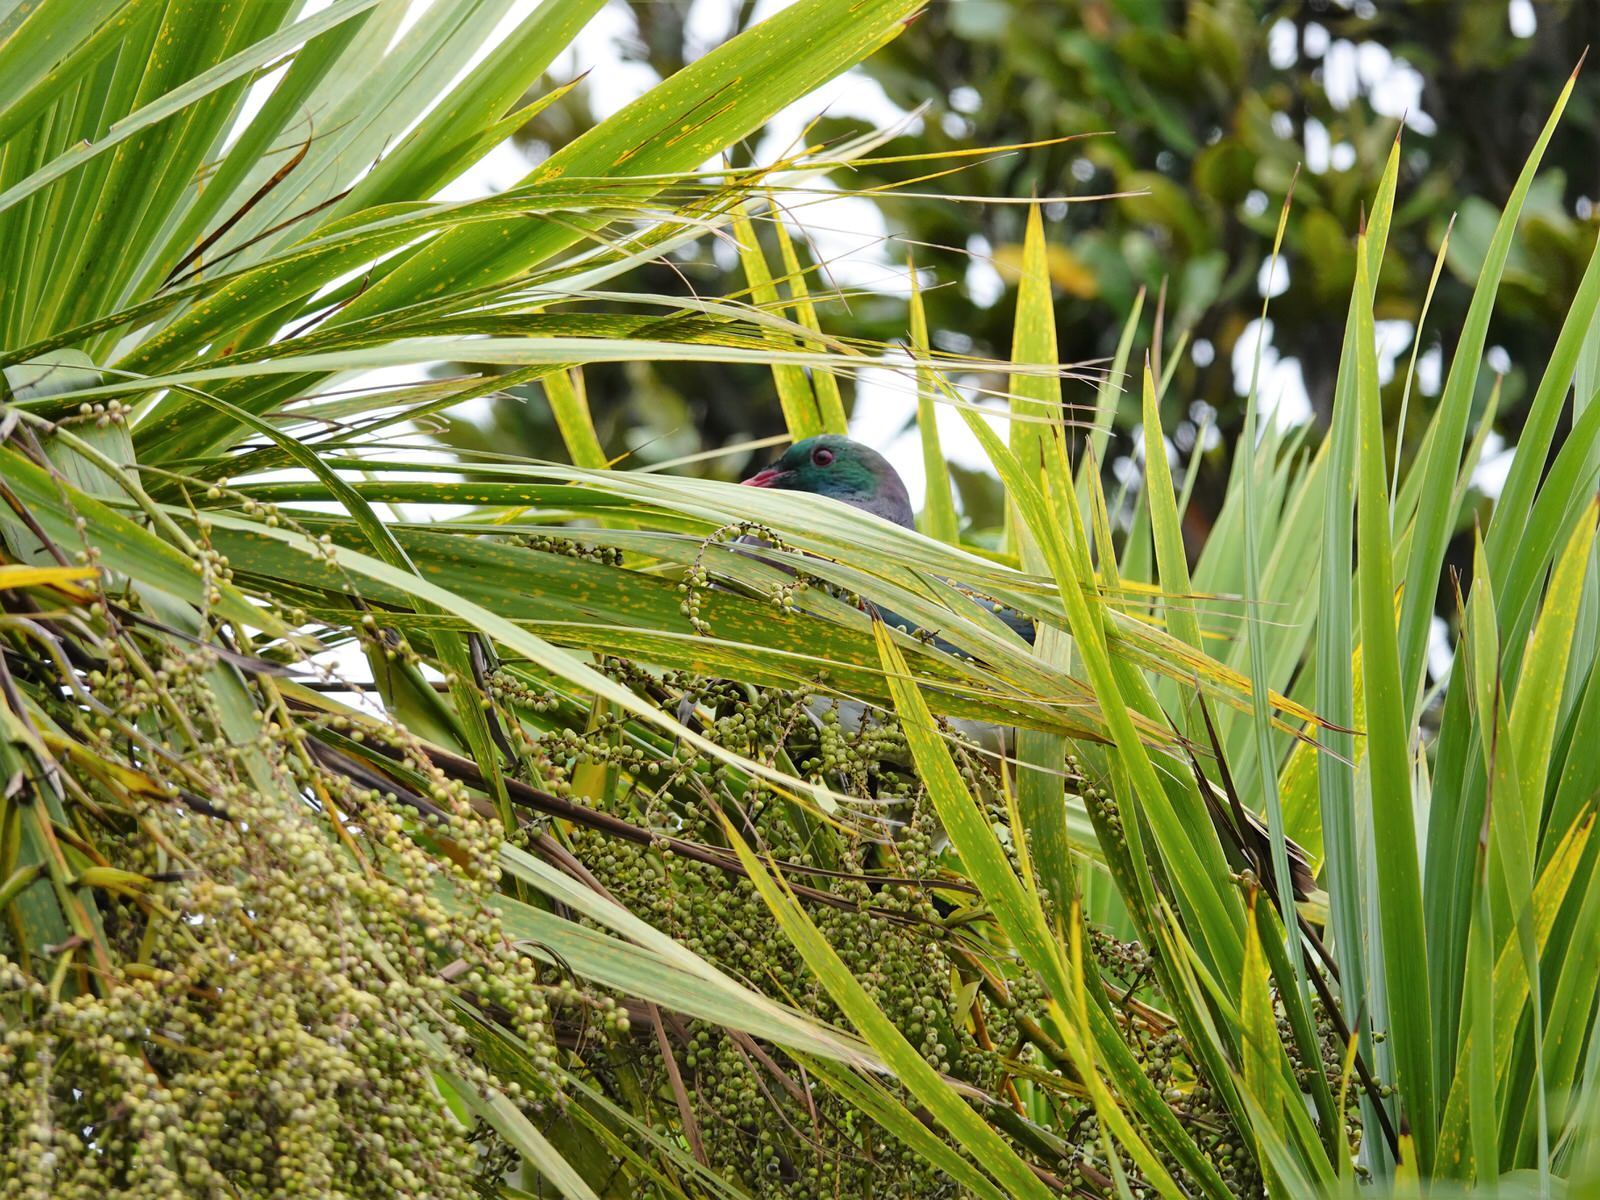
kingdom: Animalia
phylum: Chordata
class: Aves
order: Columbiformes
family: Columbidae
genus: Hemiphaga
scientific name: Hemiphaga novaeseelandiae
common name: New zealand pigeon
